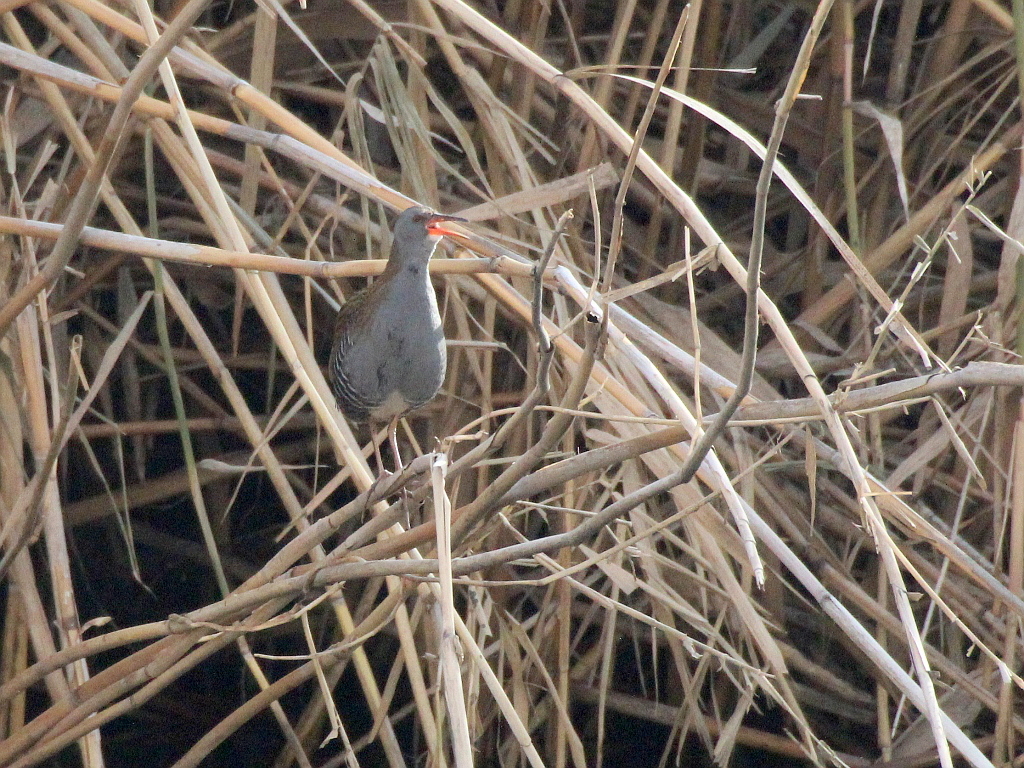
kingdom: Animalia
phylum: Chordata
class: Aves
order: Gruiformes
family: Rallidae
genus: Rallus
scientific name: Rallus aquaticus
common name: Water rail
